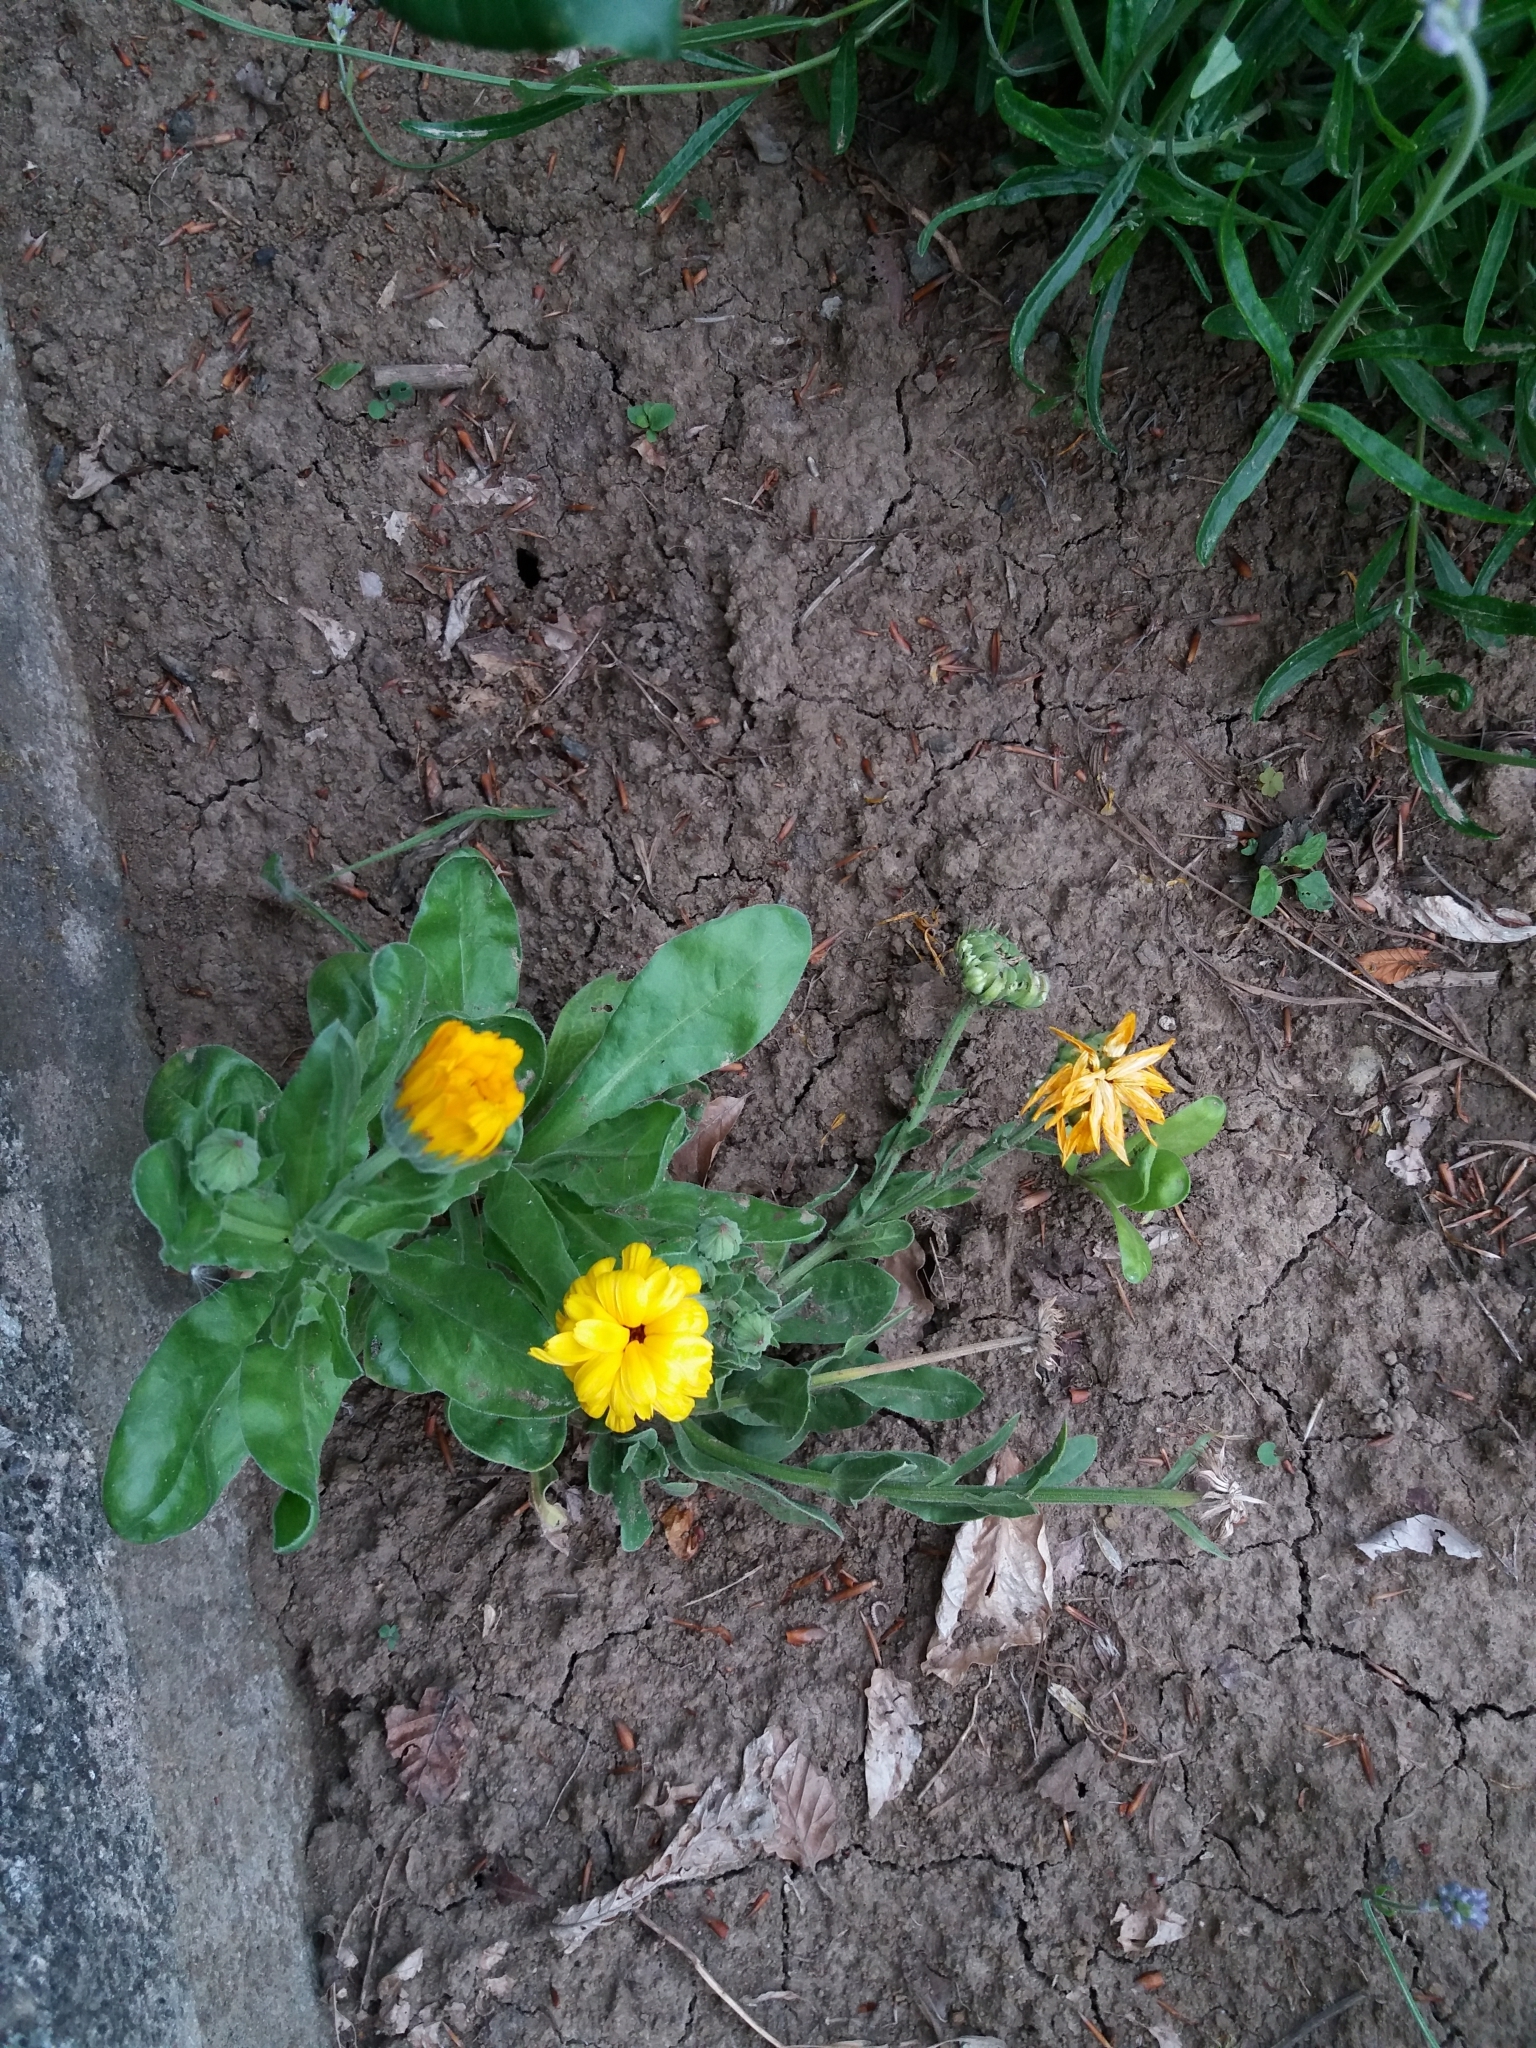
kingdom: Plantae
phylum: Tracheophyta
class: Magnoliopsida
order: Asterales
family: Asteraceae
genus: Calendula
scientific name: Calendula officinalis
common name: Pot marigold
